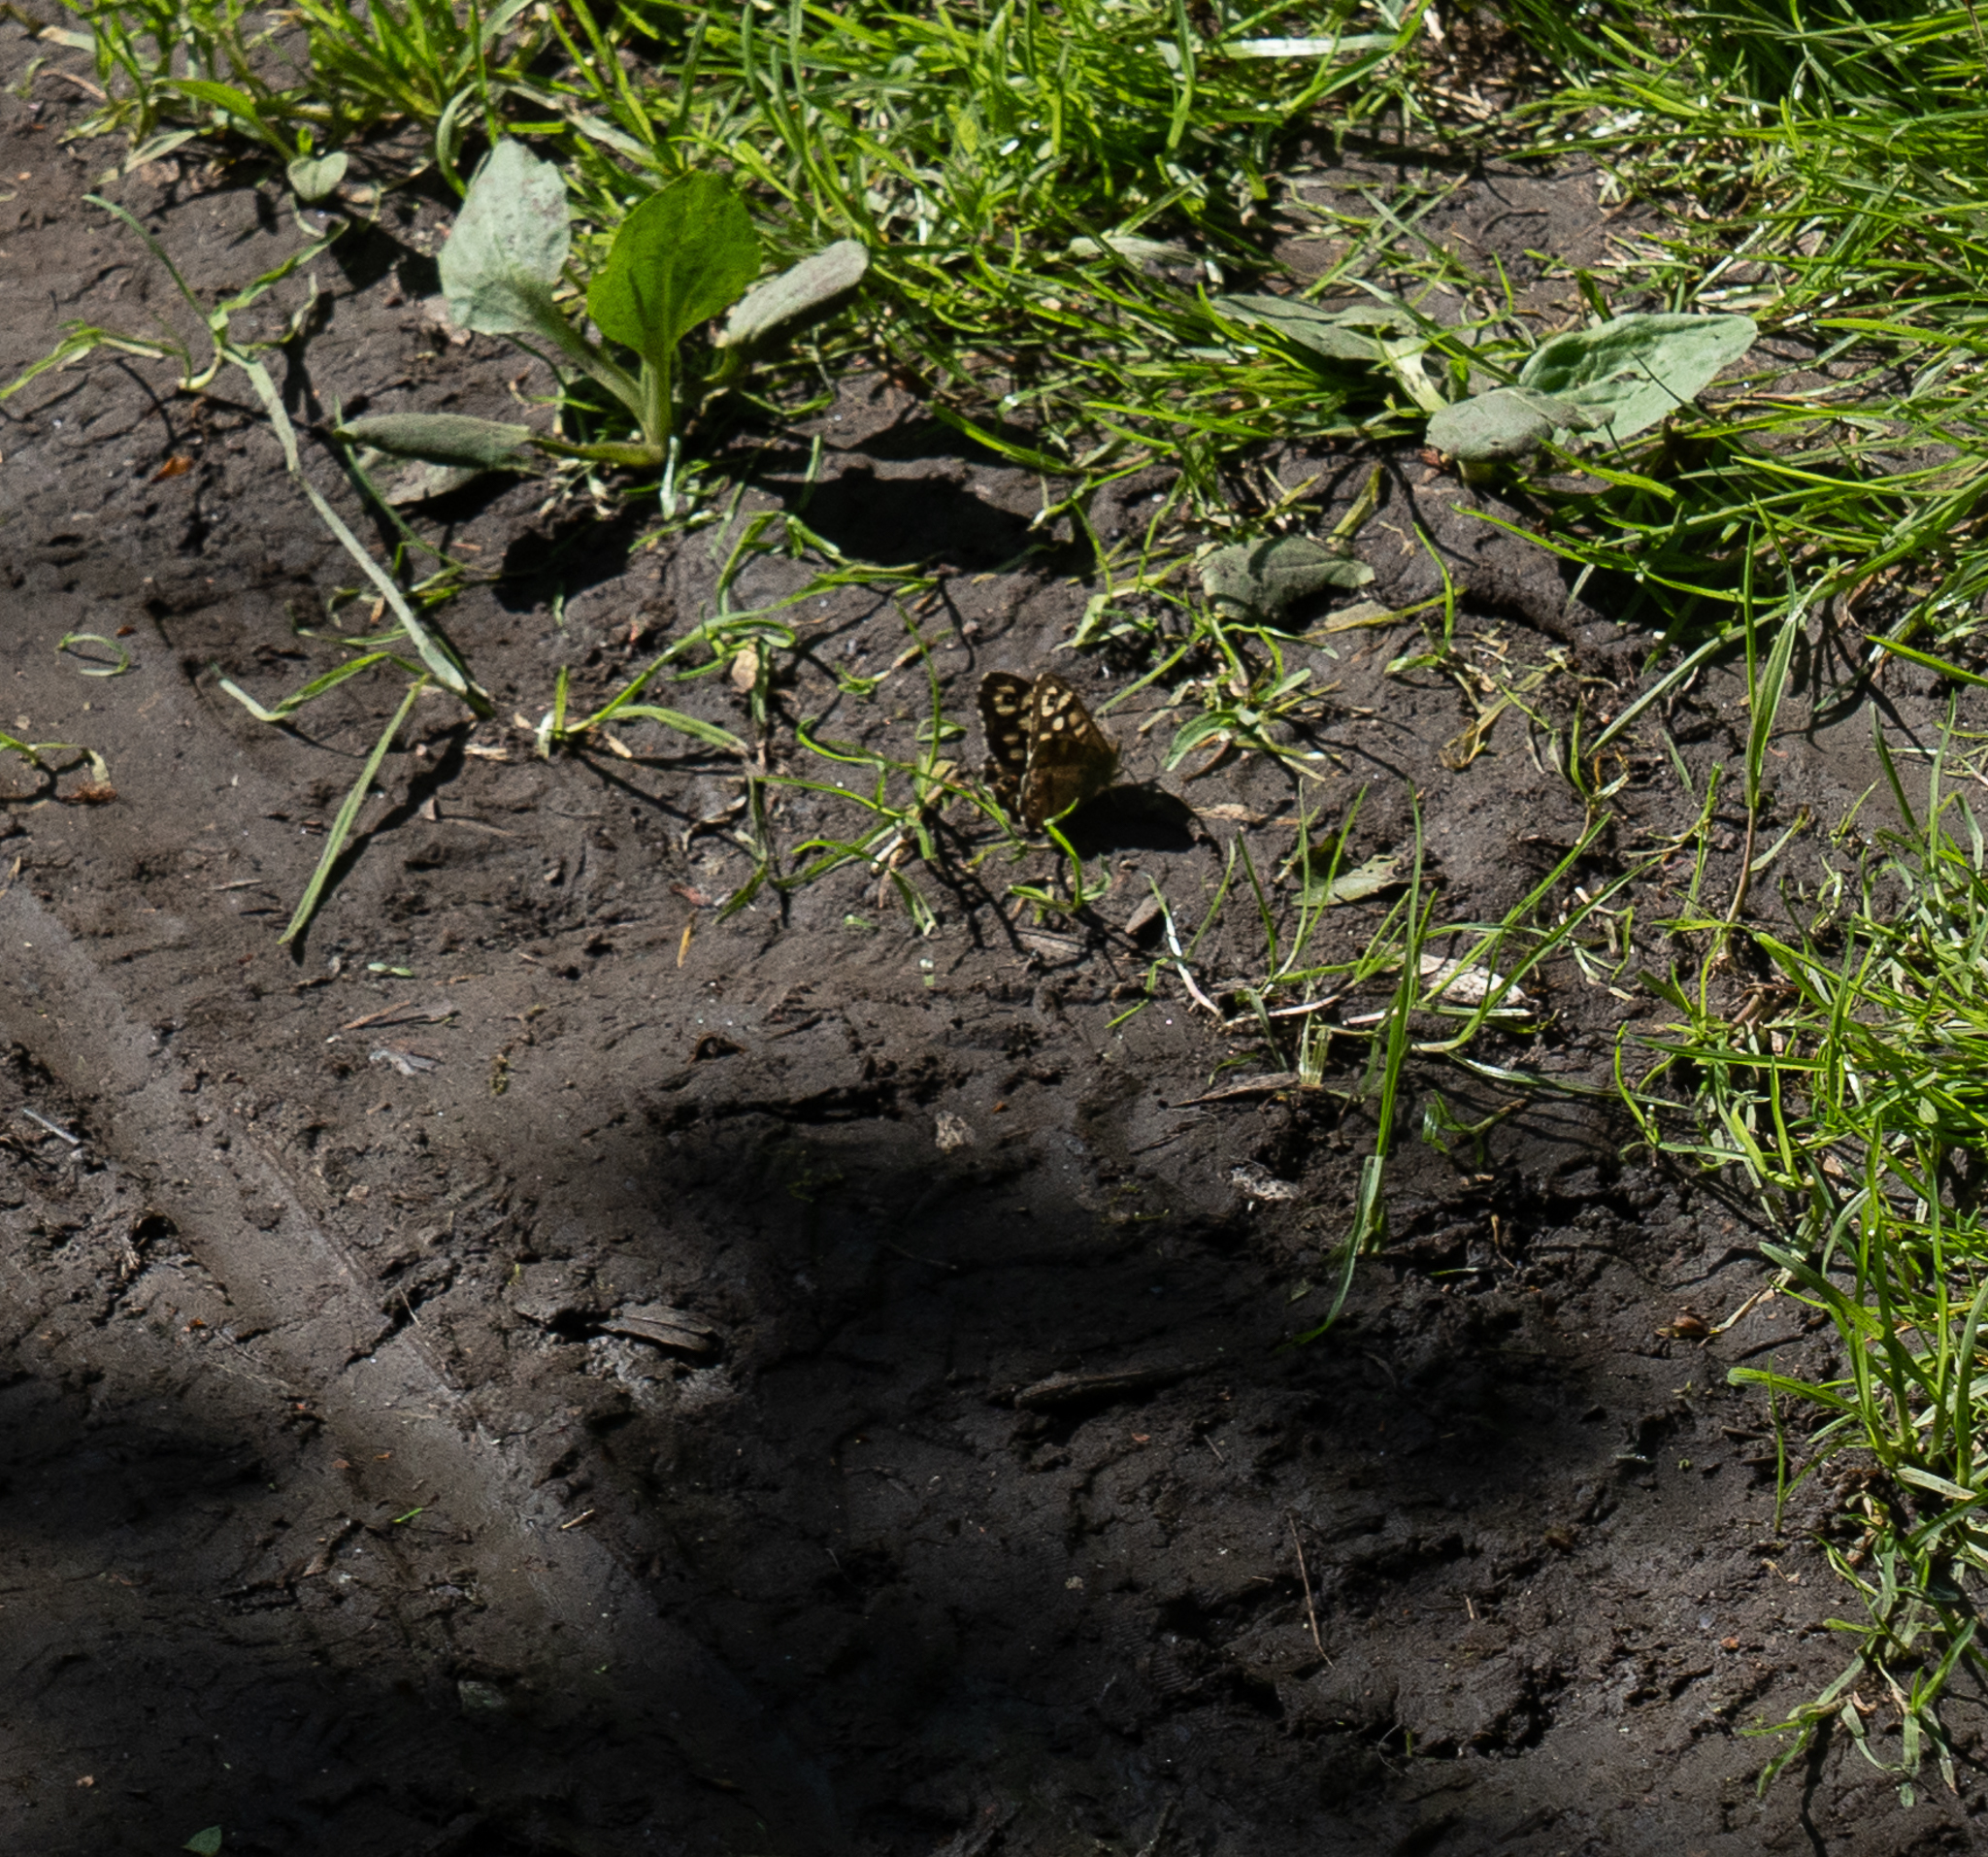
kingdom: Animalia
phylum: Arthropoda
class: Insecta
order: Lepidoptera
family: Nymphalidae
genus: Pararge
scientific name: Pararge aegeria
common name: Speckled wood
